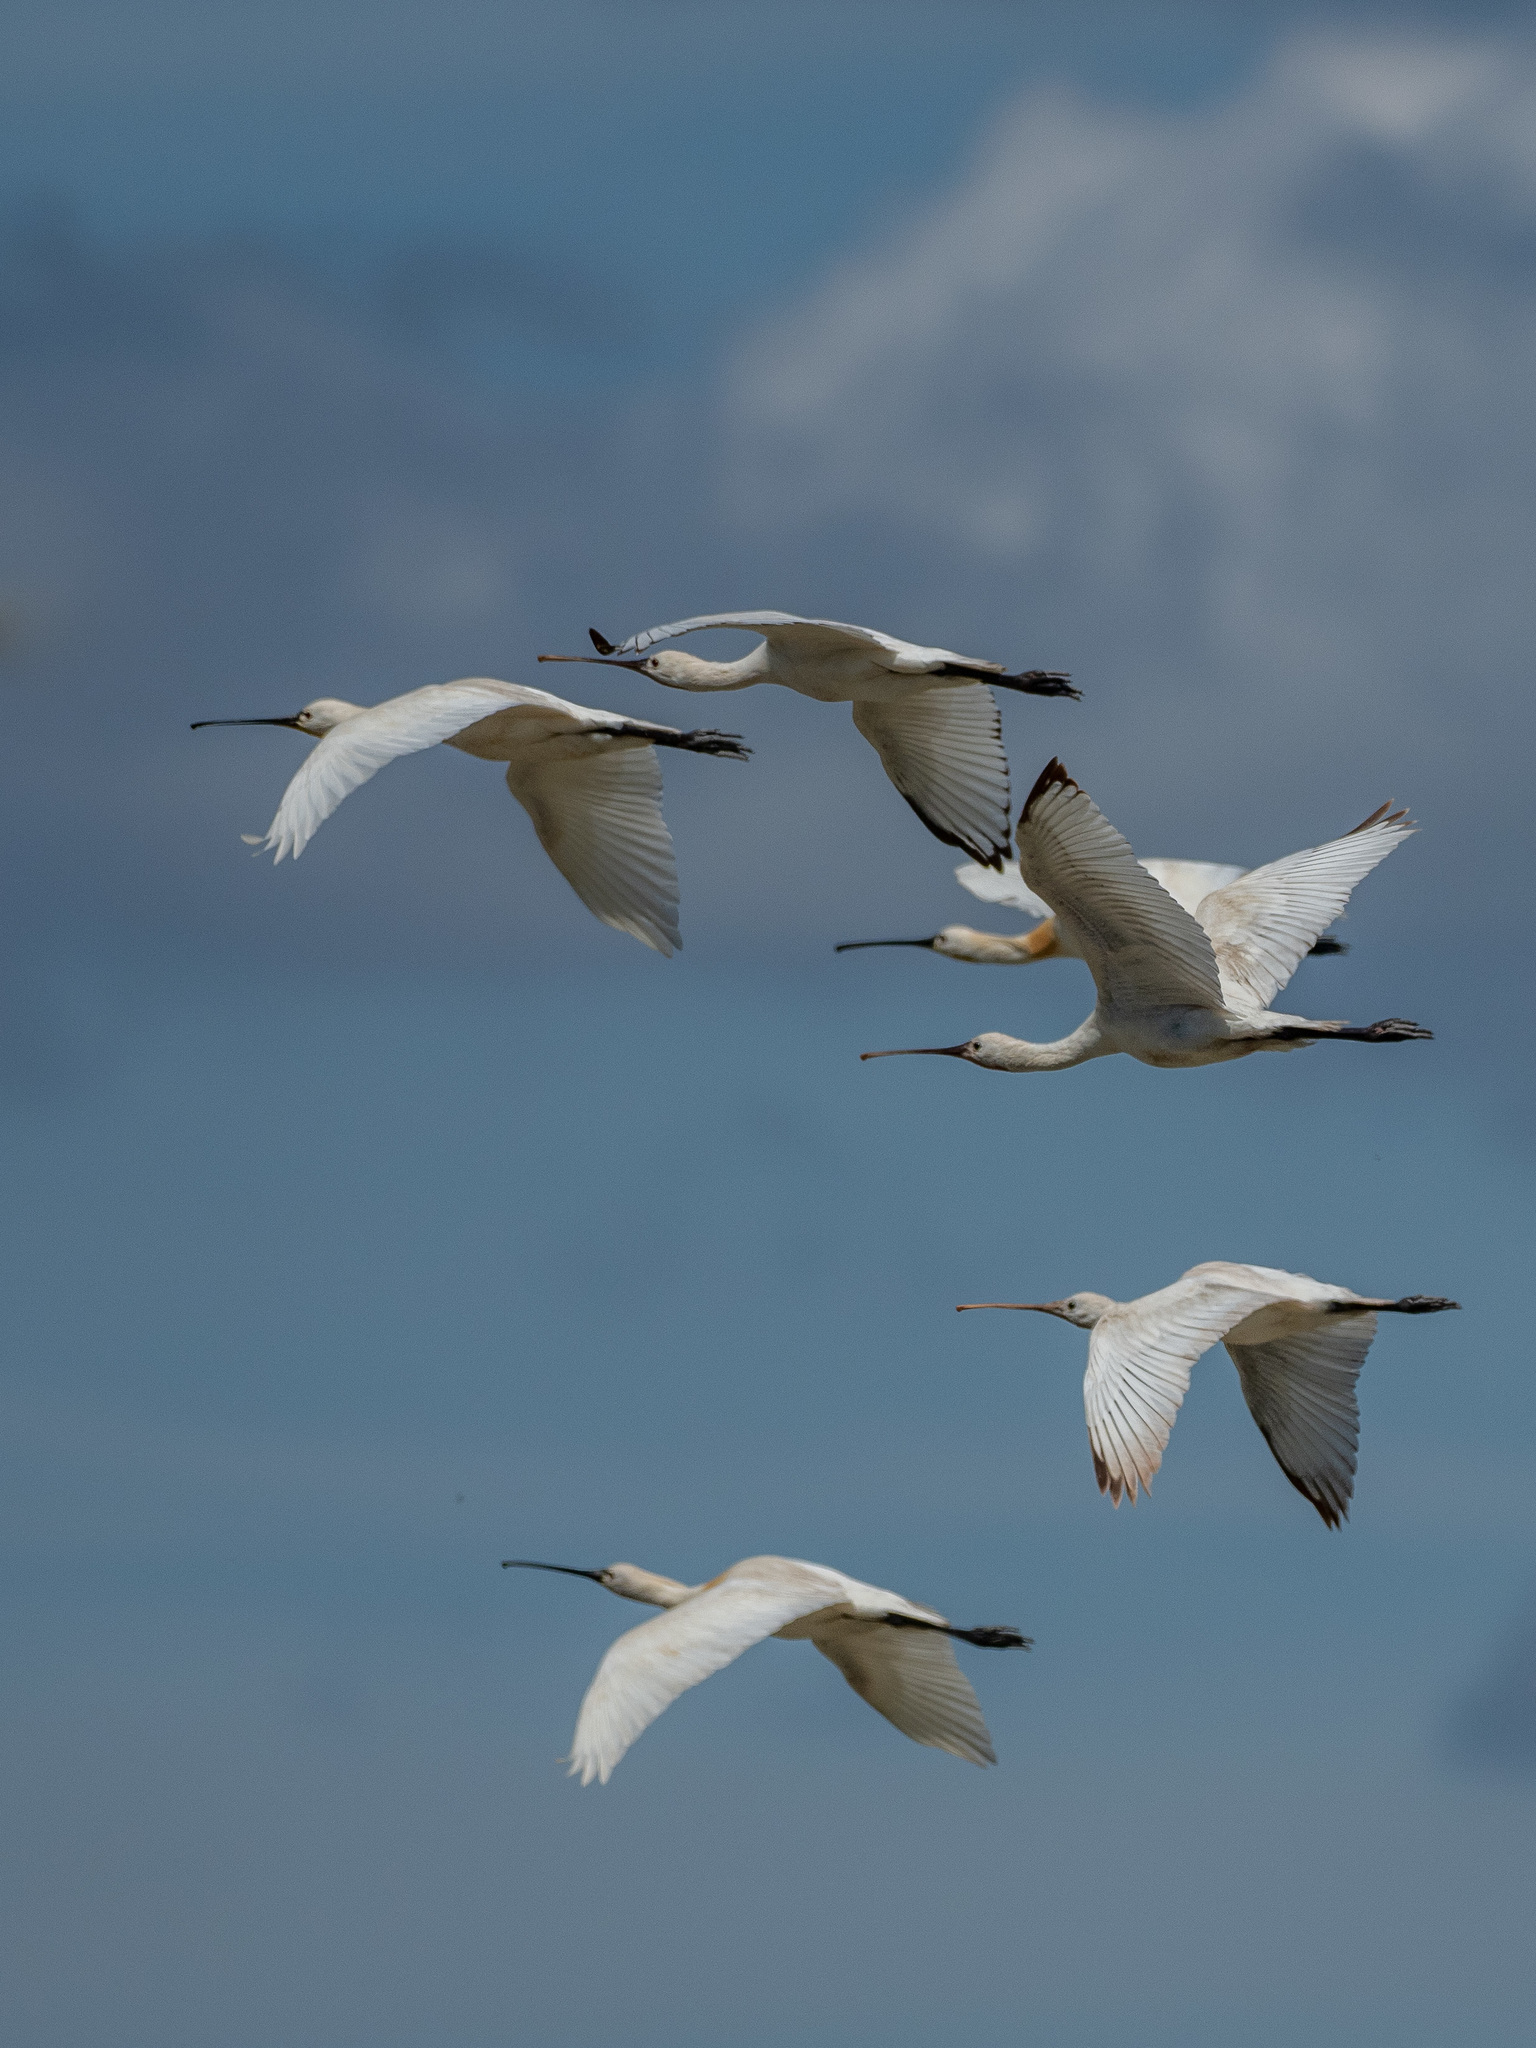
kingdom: Animalia
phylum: Chordata
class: Aves
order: Pelecaniformes
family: Threskiornithidae
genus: Platalea
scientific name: Platalea leucorodia
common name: Eurasian spoonbill
